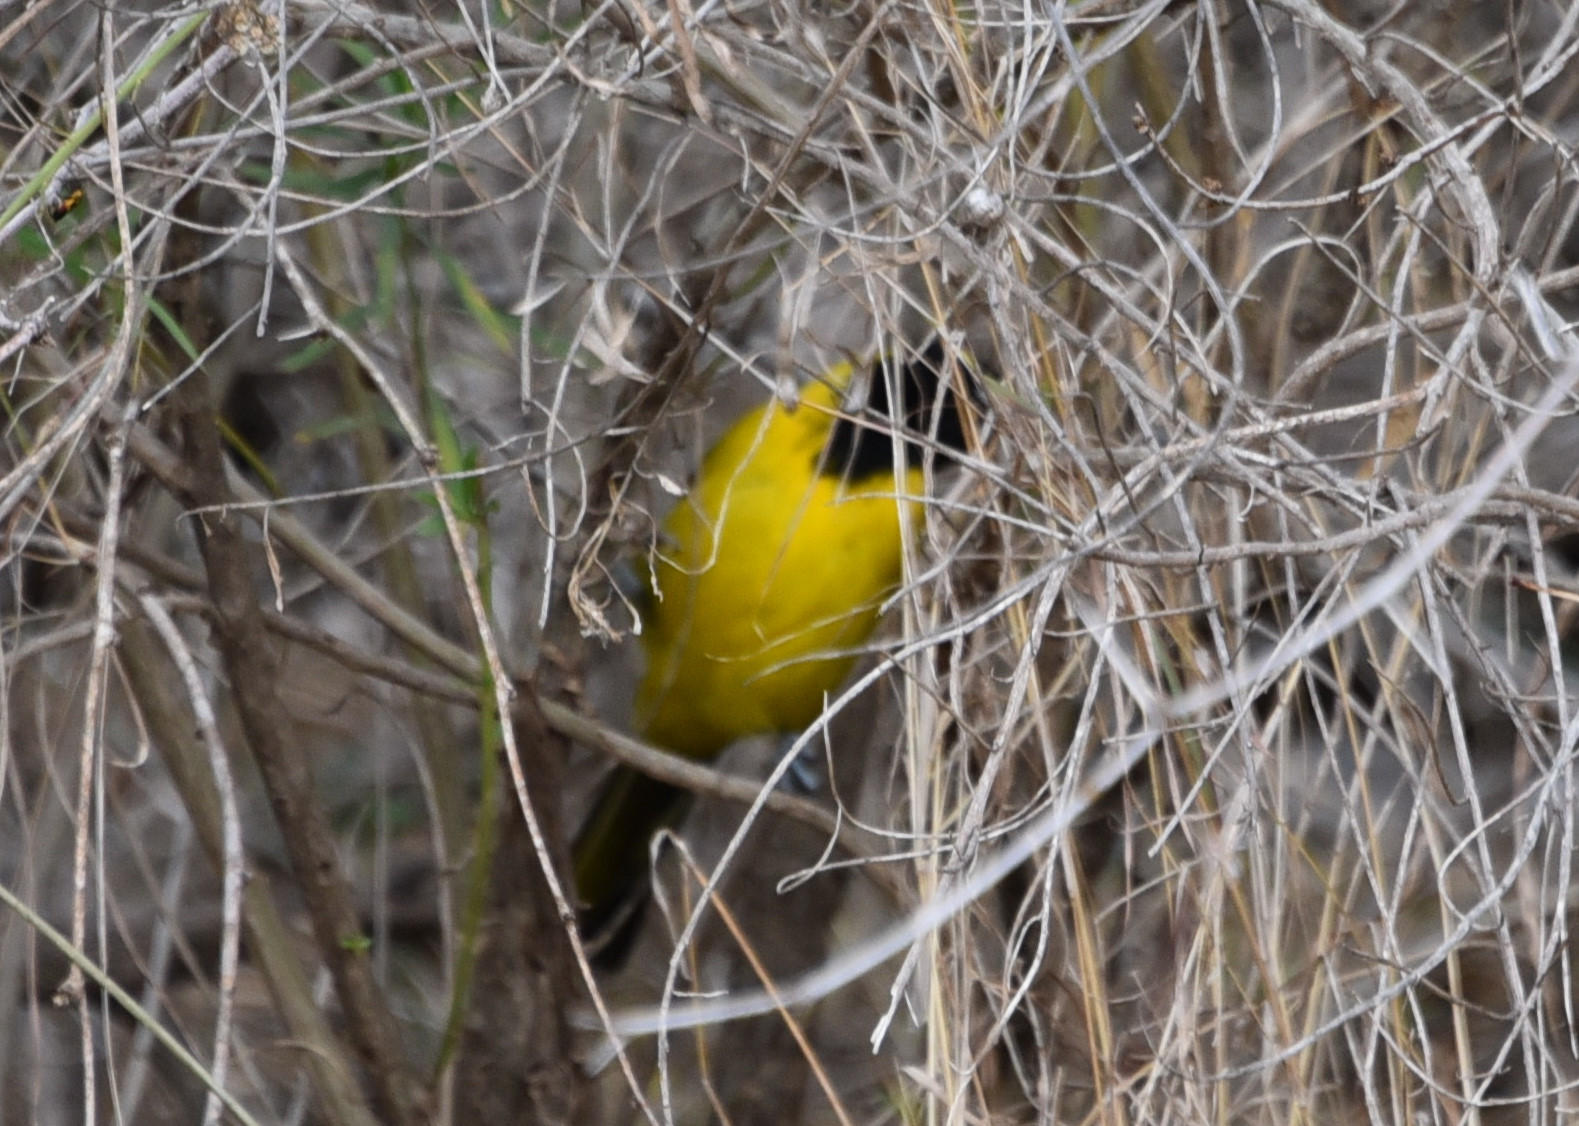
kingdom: Animalia
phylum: Chordata
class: Aves
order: Passeriformes
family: Icteridae
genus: Icterus
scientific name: Icterus graduacauda
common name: Audubon's oriole
